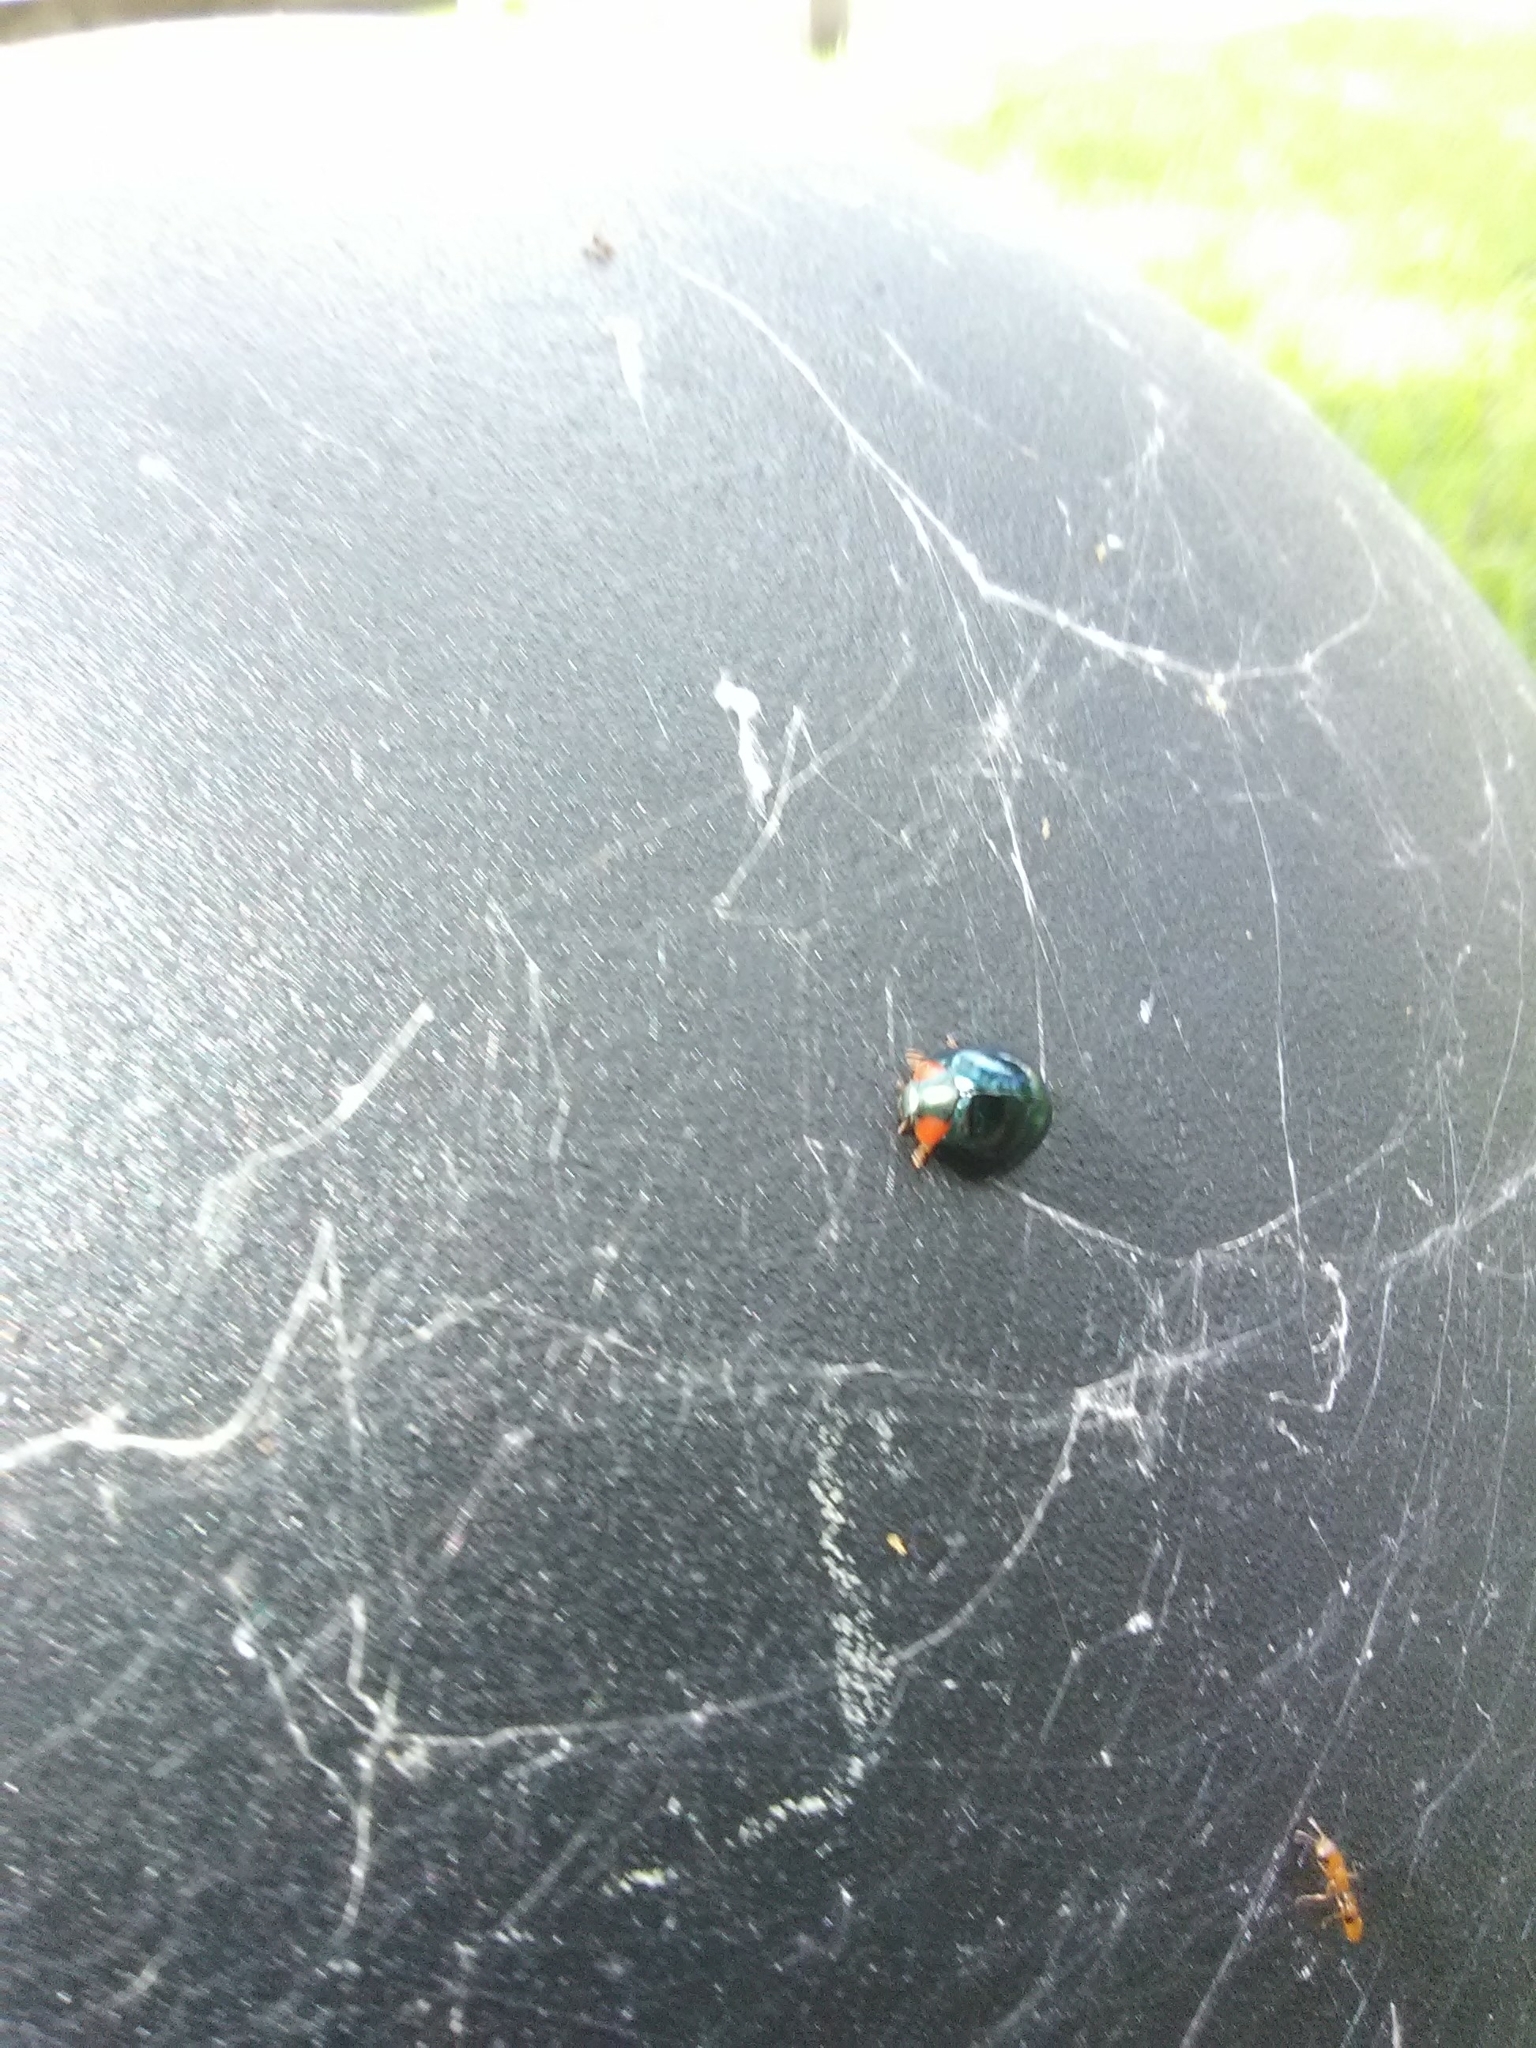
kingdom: Animalia
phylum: Arthropoda
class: Insecta
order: Coleoptera
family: Coccinellidae
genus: Curinus
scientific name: Curinus coeruleus
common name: Ladybird beetle
